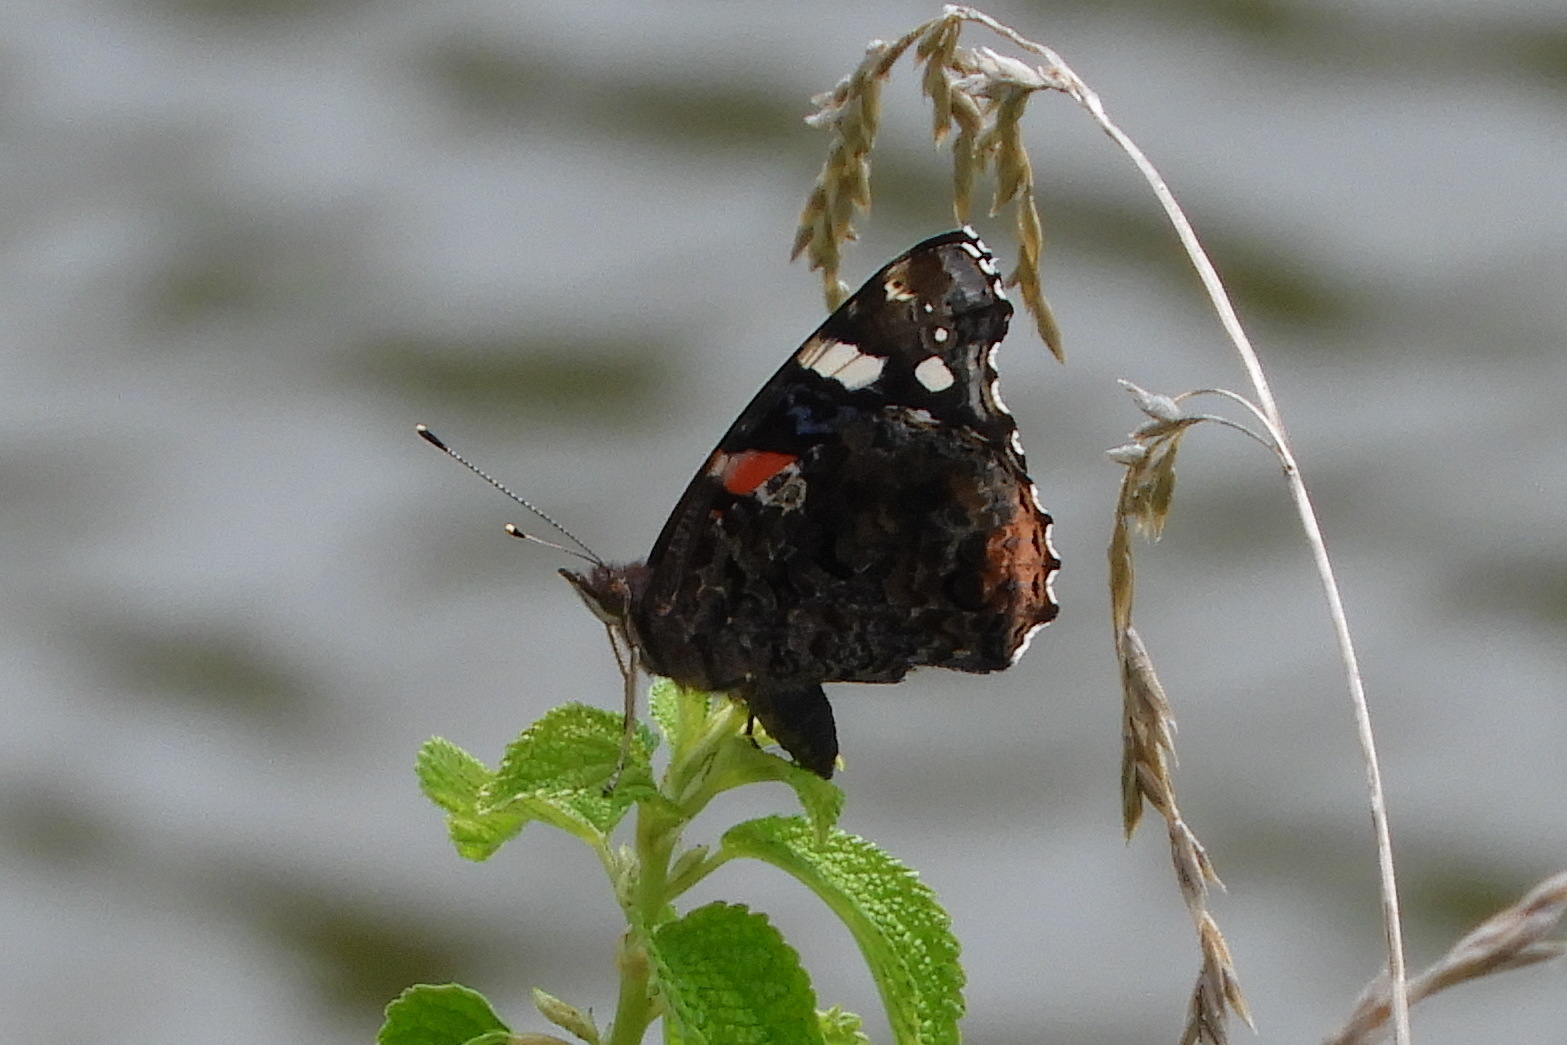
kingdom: Animalia
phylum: Arthropoda
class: Insecta
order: Lepidoptera
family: Nymphalidae
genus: Vanessa
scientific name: Vanessa atalanta
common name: Red admiral
